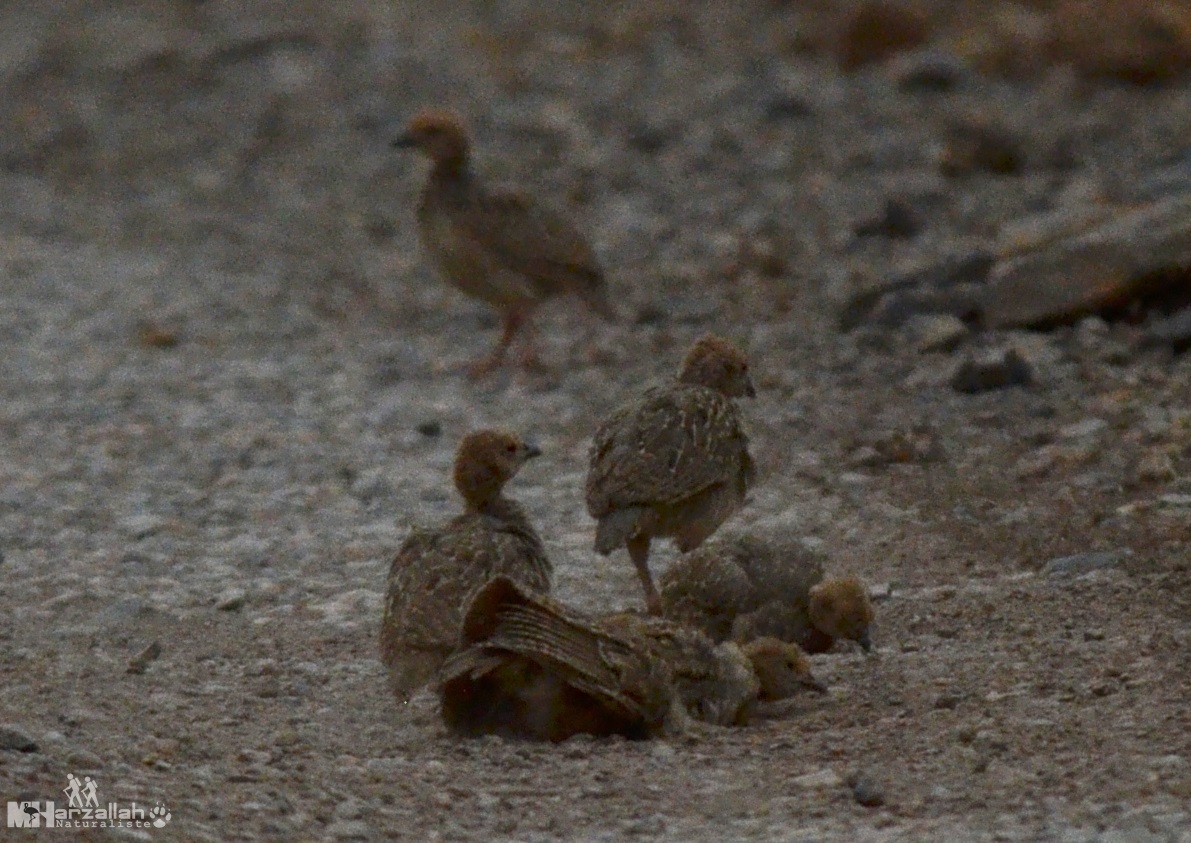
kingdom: Animalia
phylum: Chordata
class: Aves
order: Galliformes
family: Phasianidae
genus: Alectoris
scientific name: Alectoris barbara
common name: Barbary partridge
